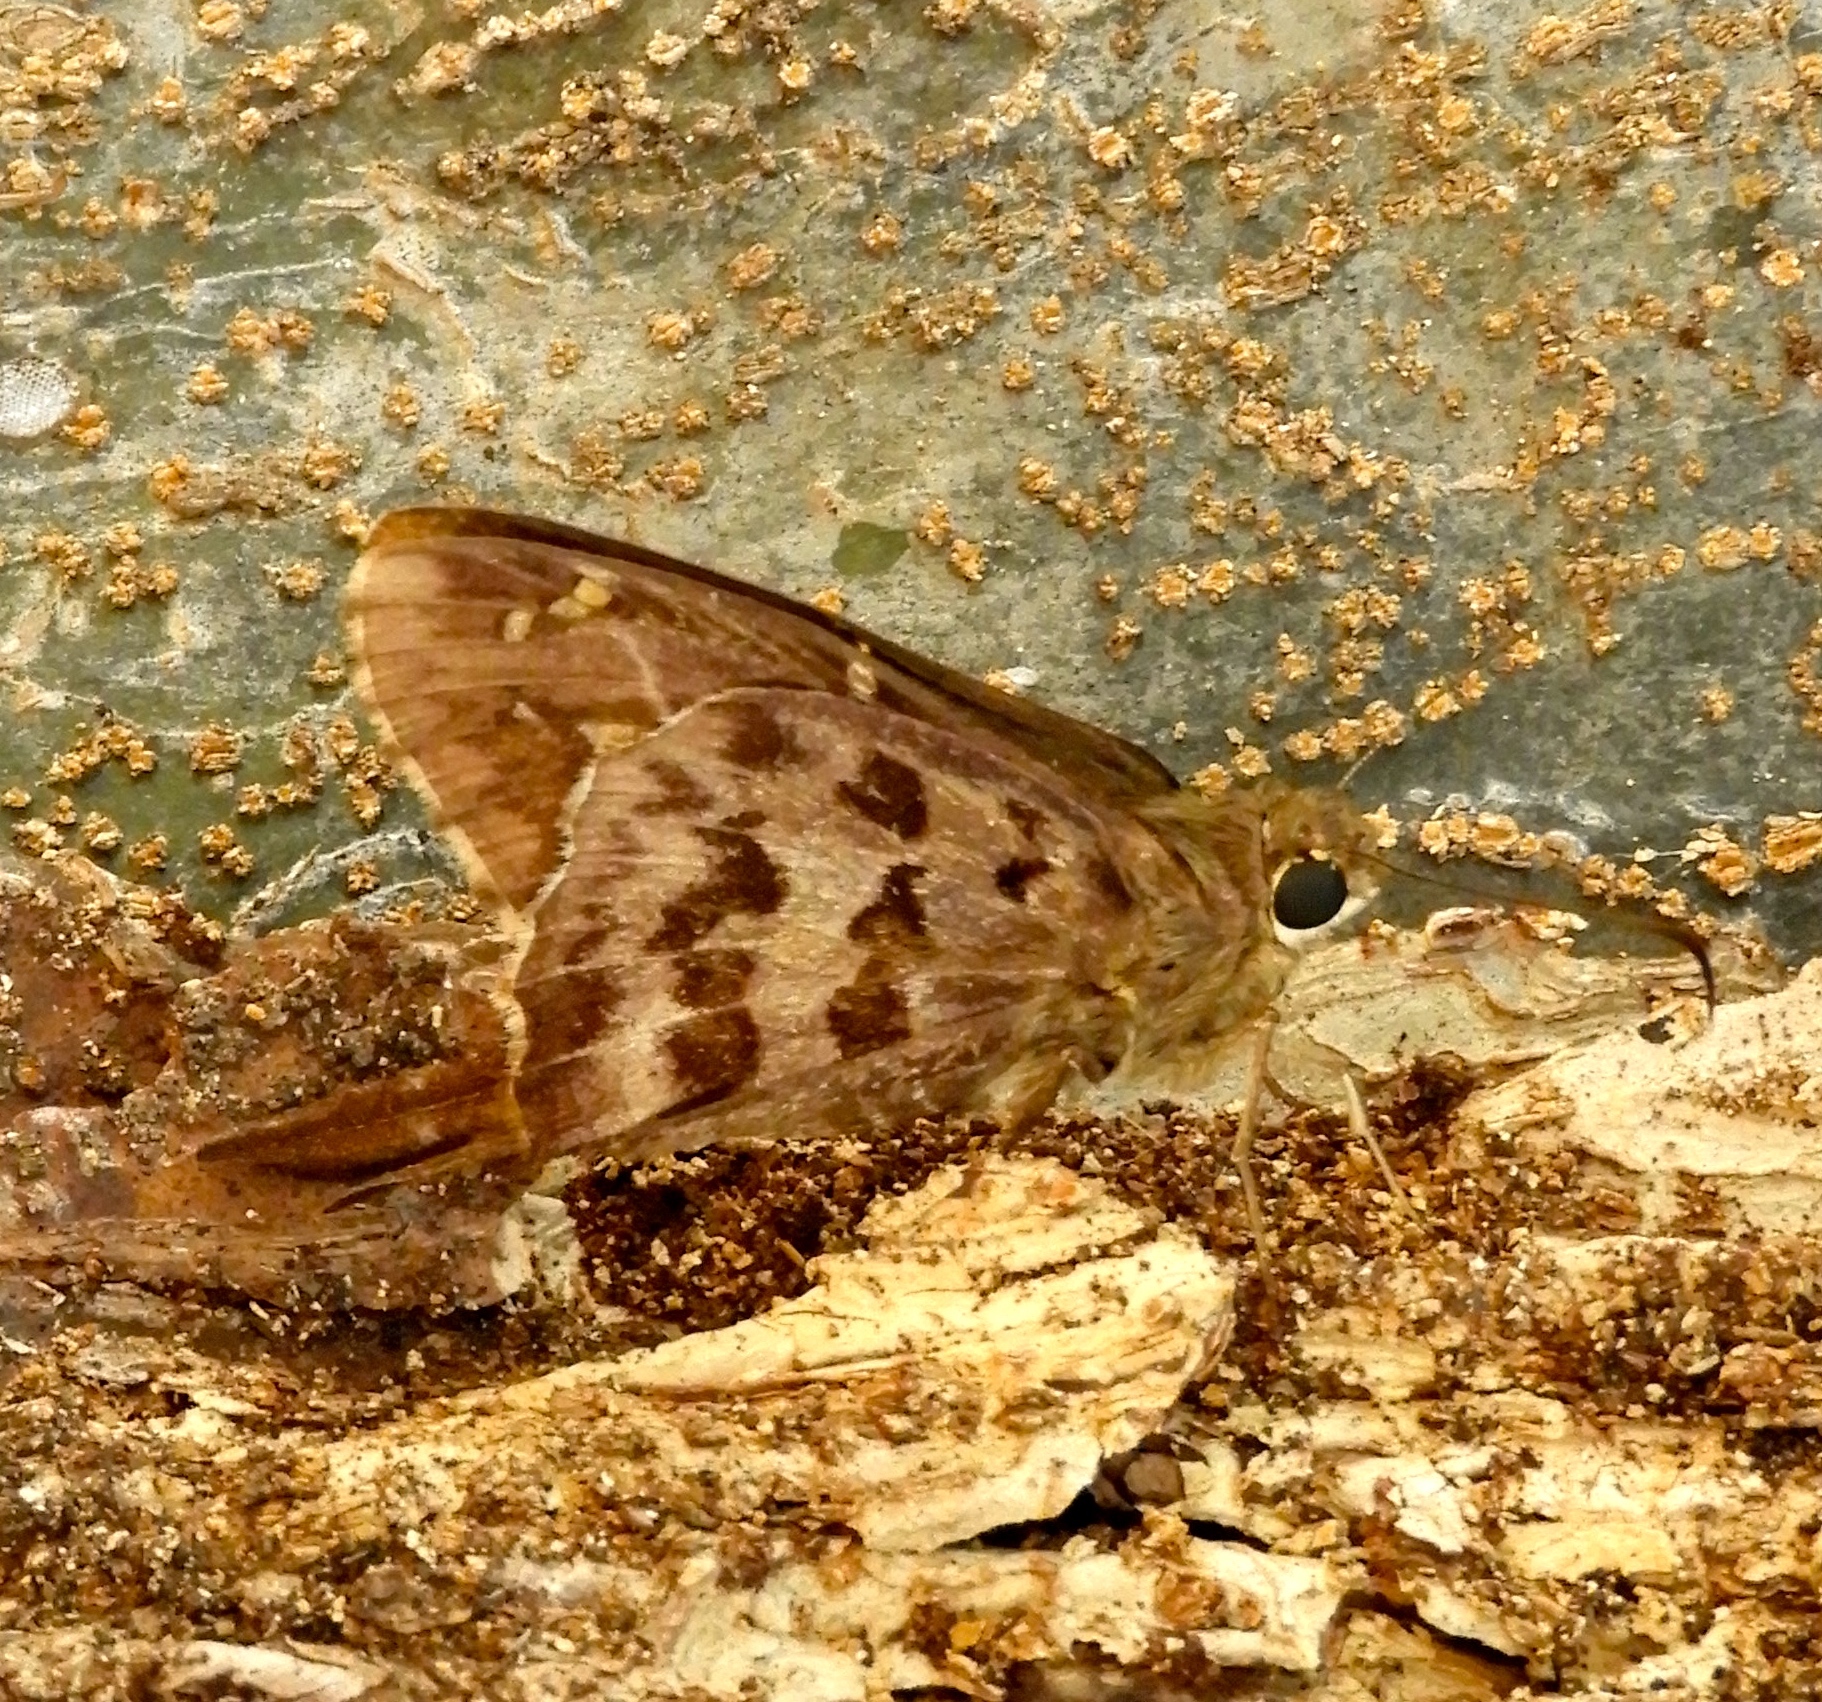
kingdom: Animalia
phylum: Arthropoda
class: Insecta
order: Lepidoptera
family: Hesperiidae
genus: Thorybes
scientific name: Thorybes
